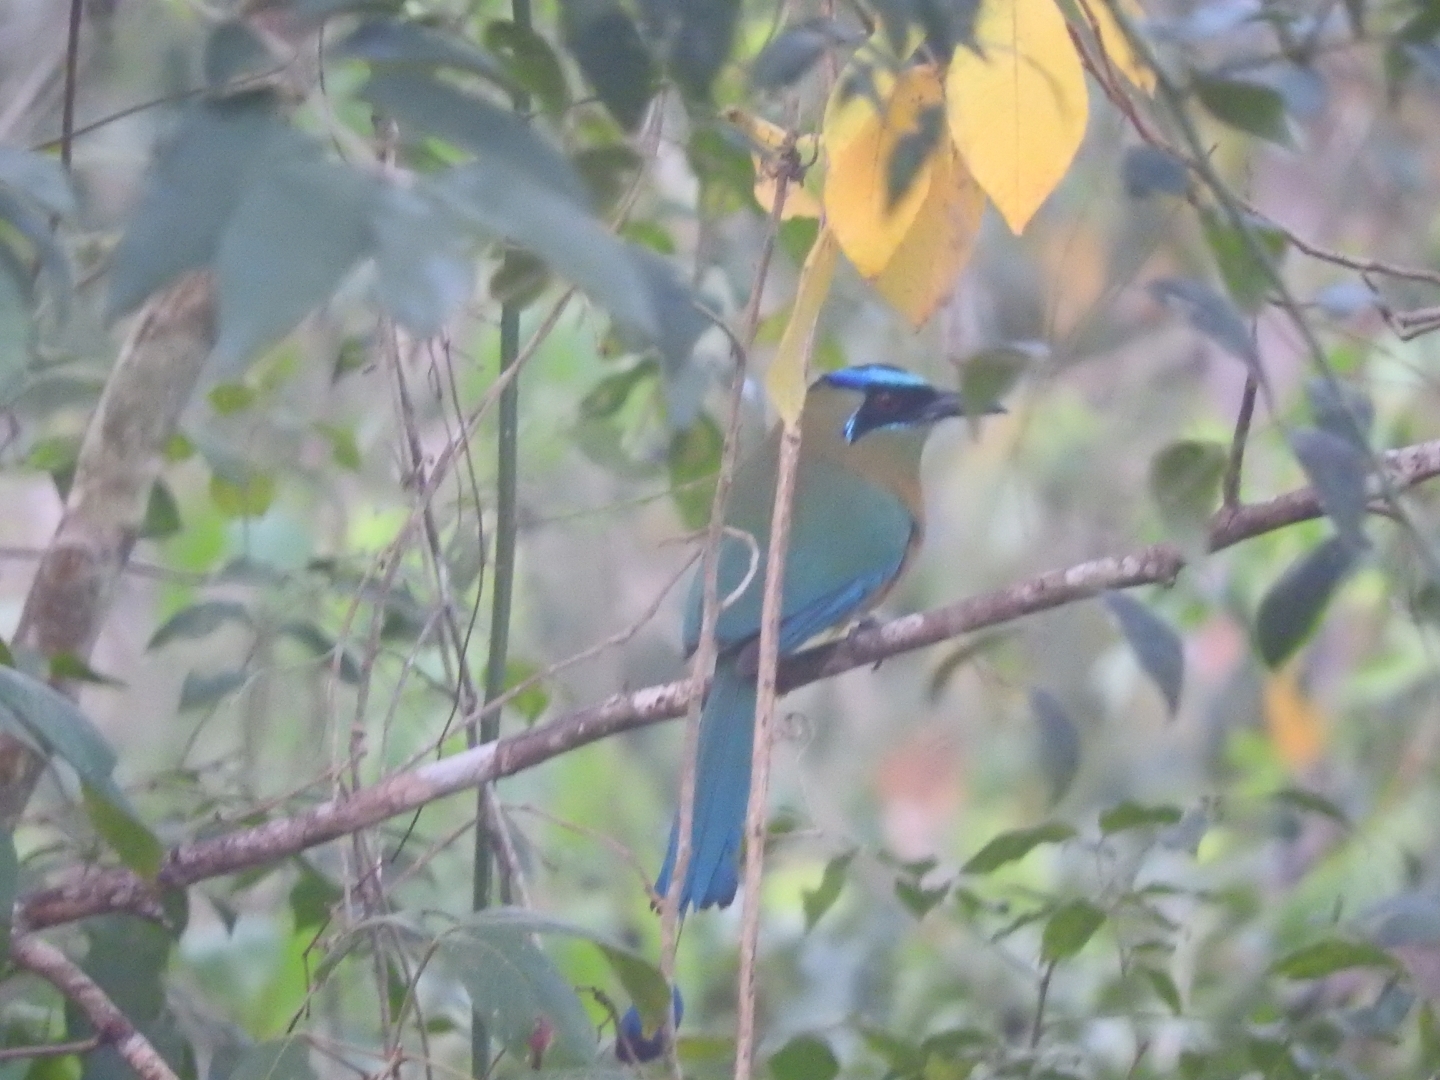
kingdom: Animalia
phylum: Chordata
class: Aves
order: Coraciiformes
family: Momotidae
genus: Momotus
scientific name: Momotus lessonii
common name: Lesson's motmot
